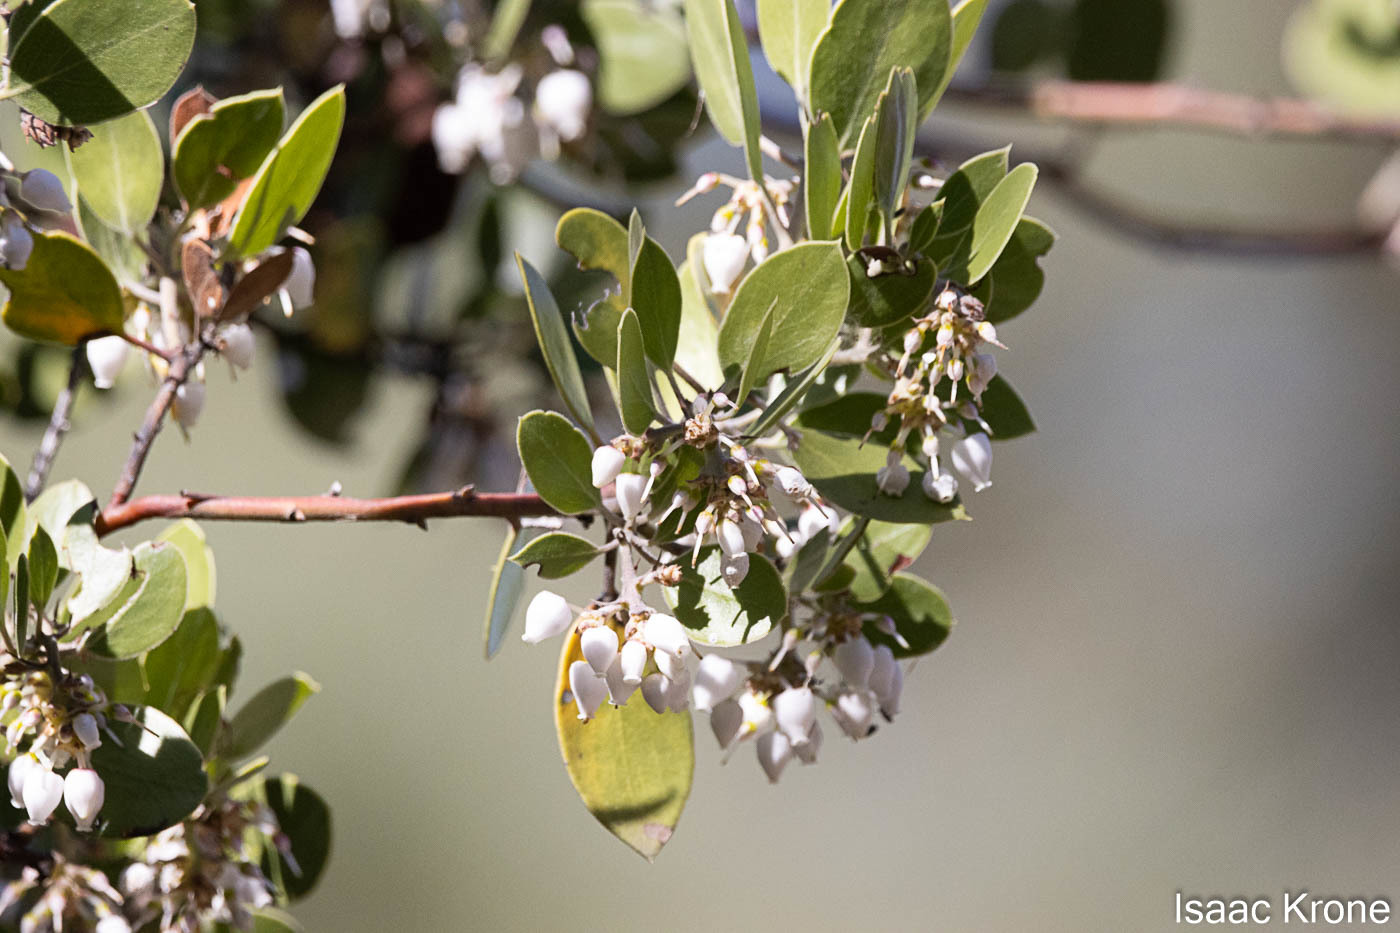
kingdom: Plantae
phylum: Tracheophyta
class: Magnoliopsida
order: Ericales
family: Ericaceae
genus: Arctostaphylos
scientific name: Arctostaphylos manzanita
